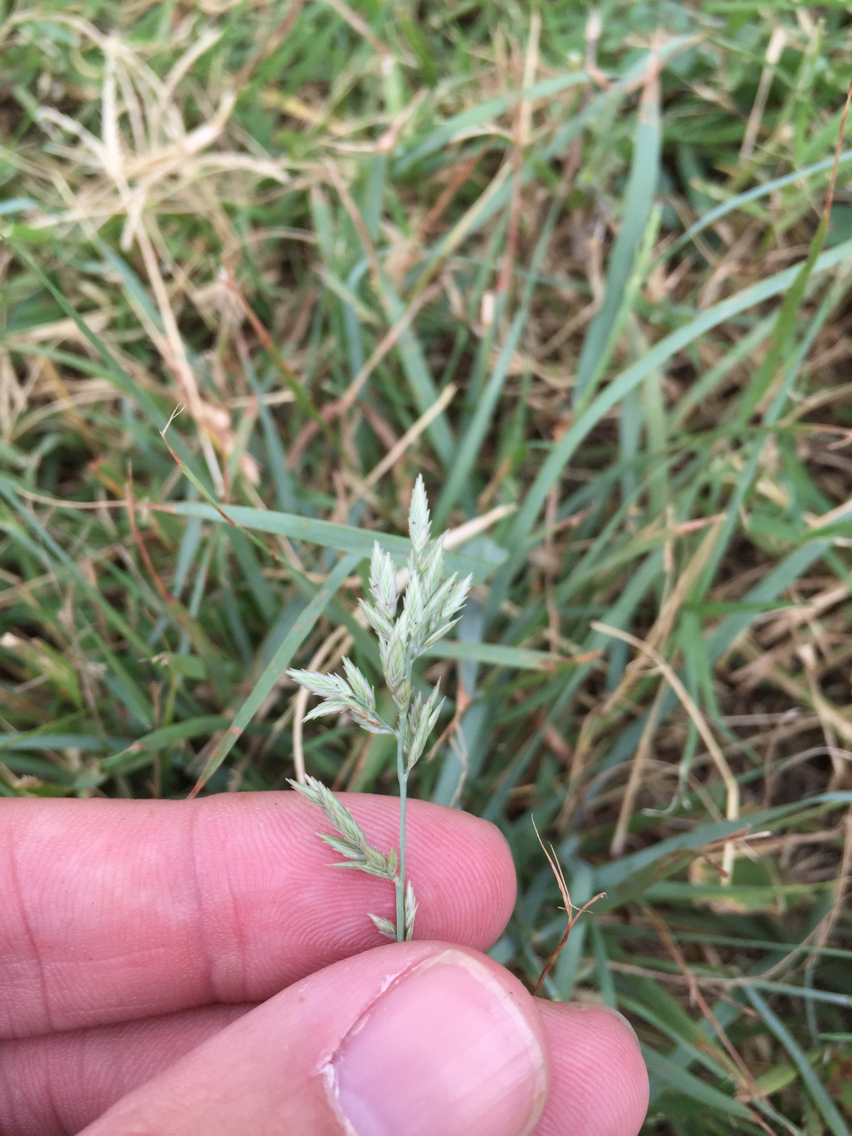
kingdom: Plantae
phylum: Tracheophyta
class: Liliopsida
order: Poales
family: Poaceae
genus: Eragrostis
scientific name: Eragrostis secundiflora
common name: Red love grass
